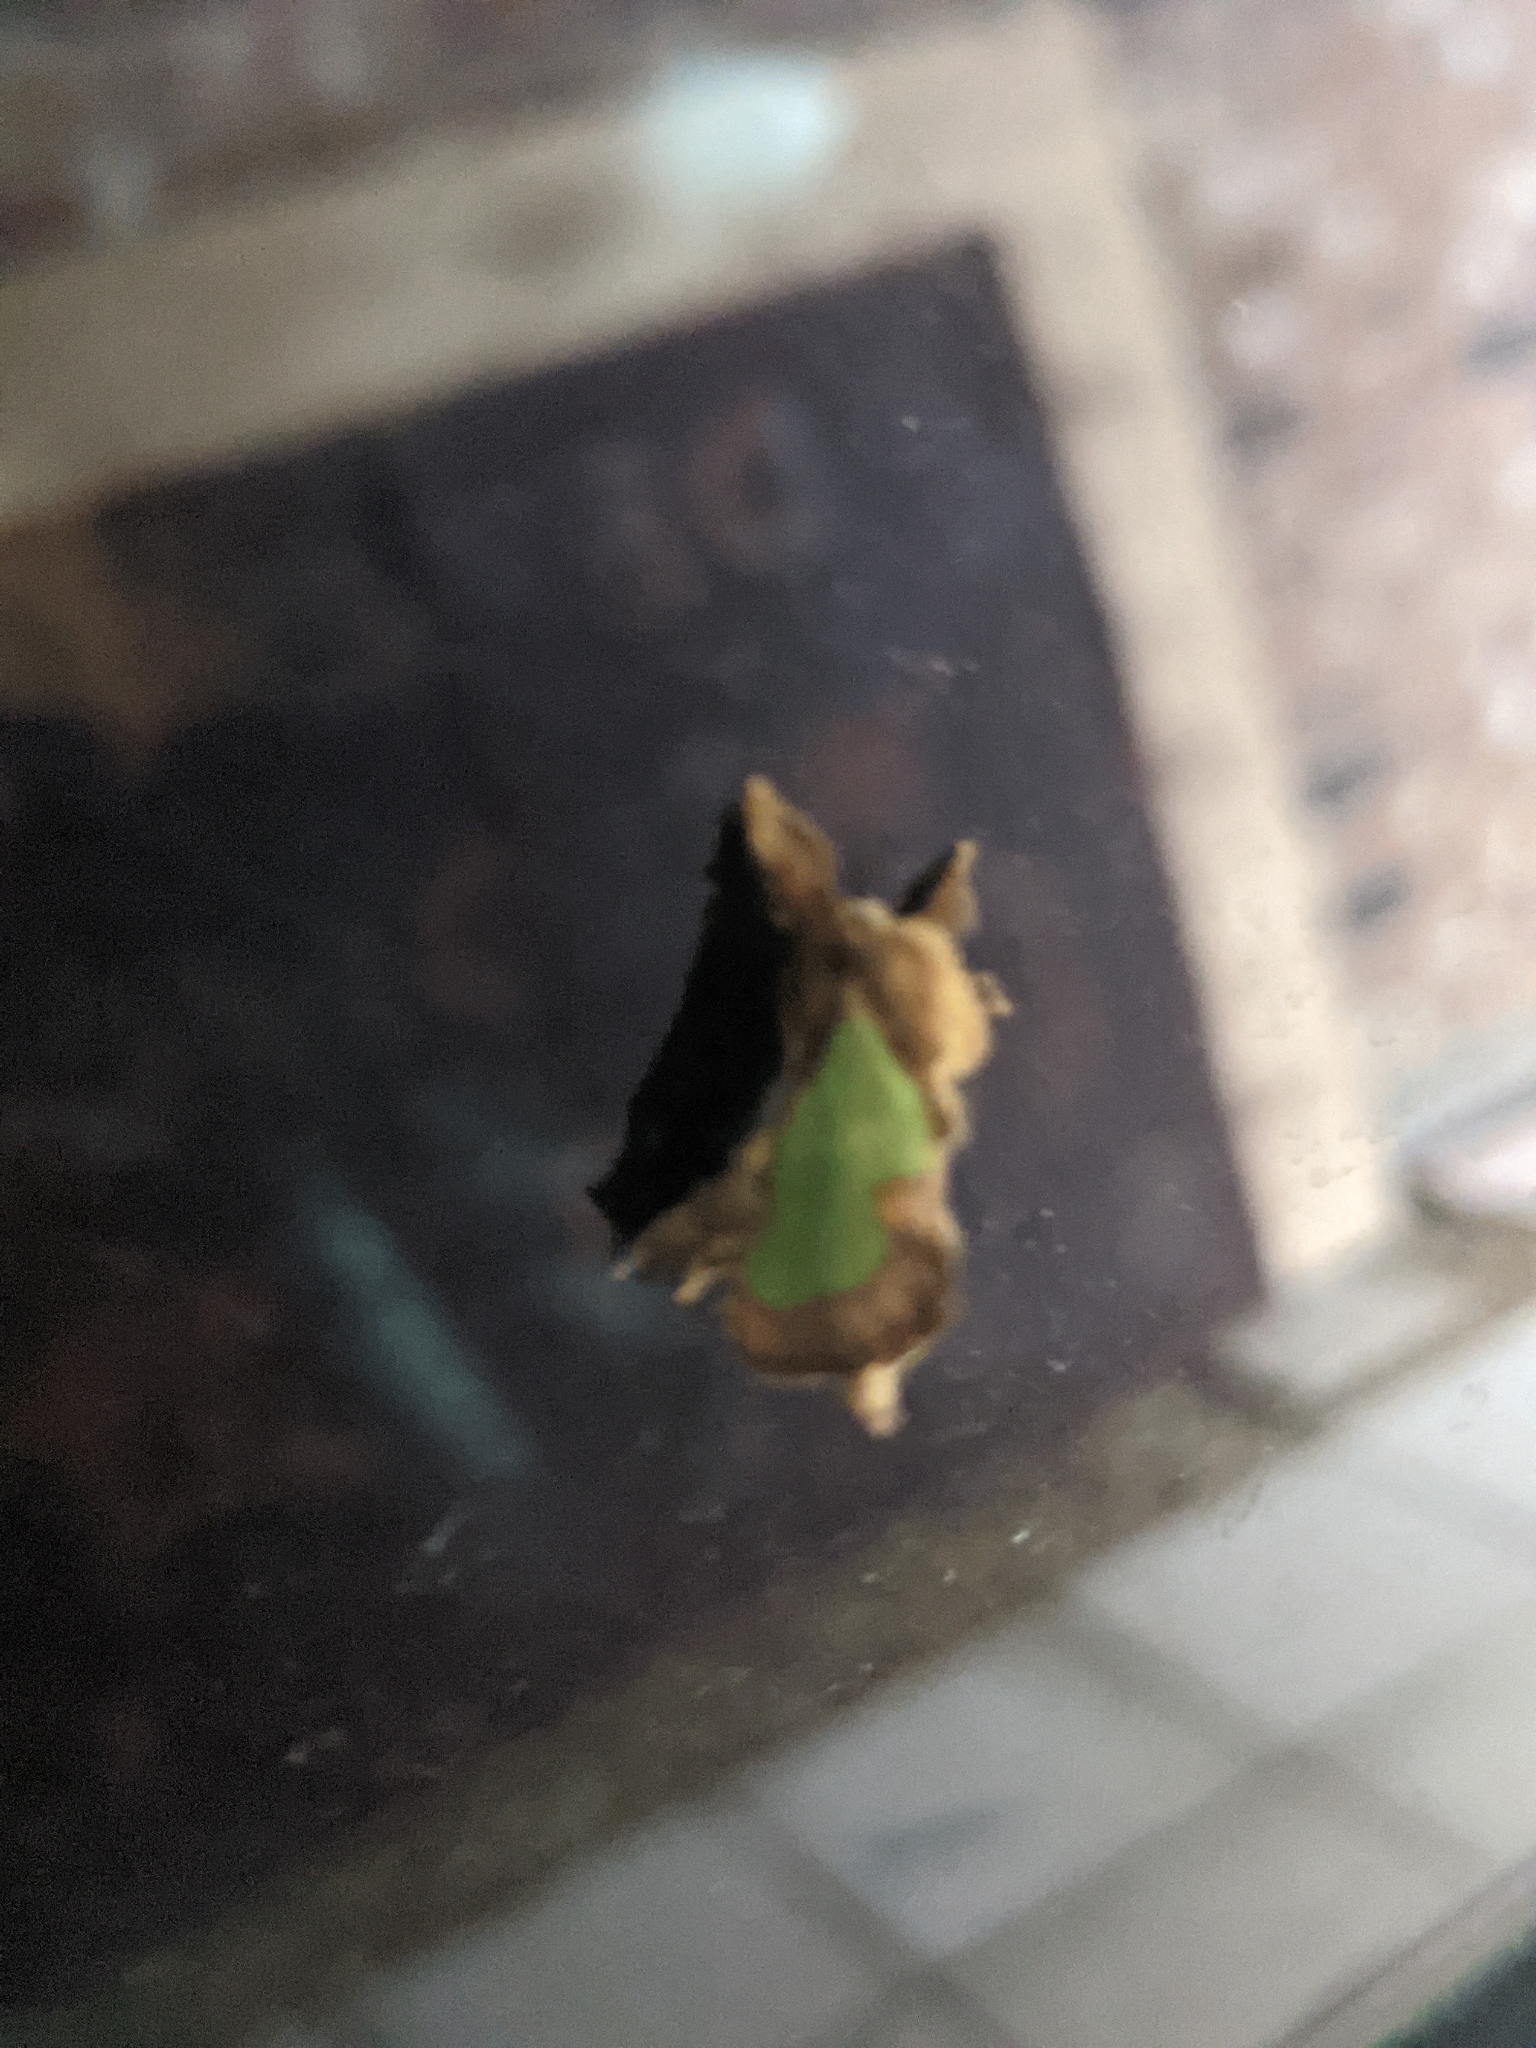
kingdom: Animalia
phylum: Arthropoda
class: Insecta
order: Lepidoptera
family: Limacodidae
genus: Euclea
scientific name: Euclea incisa
